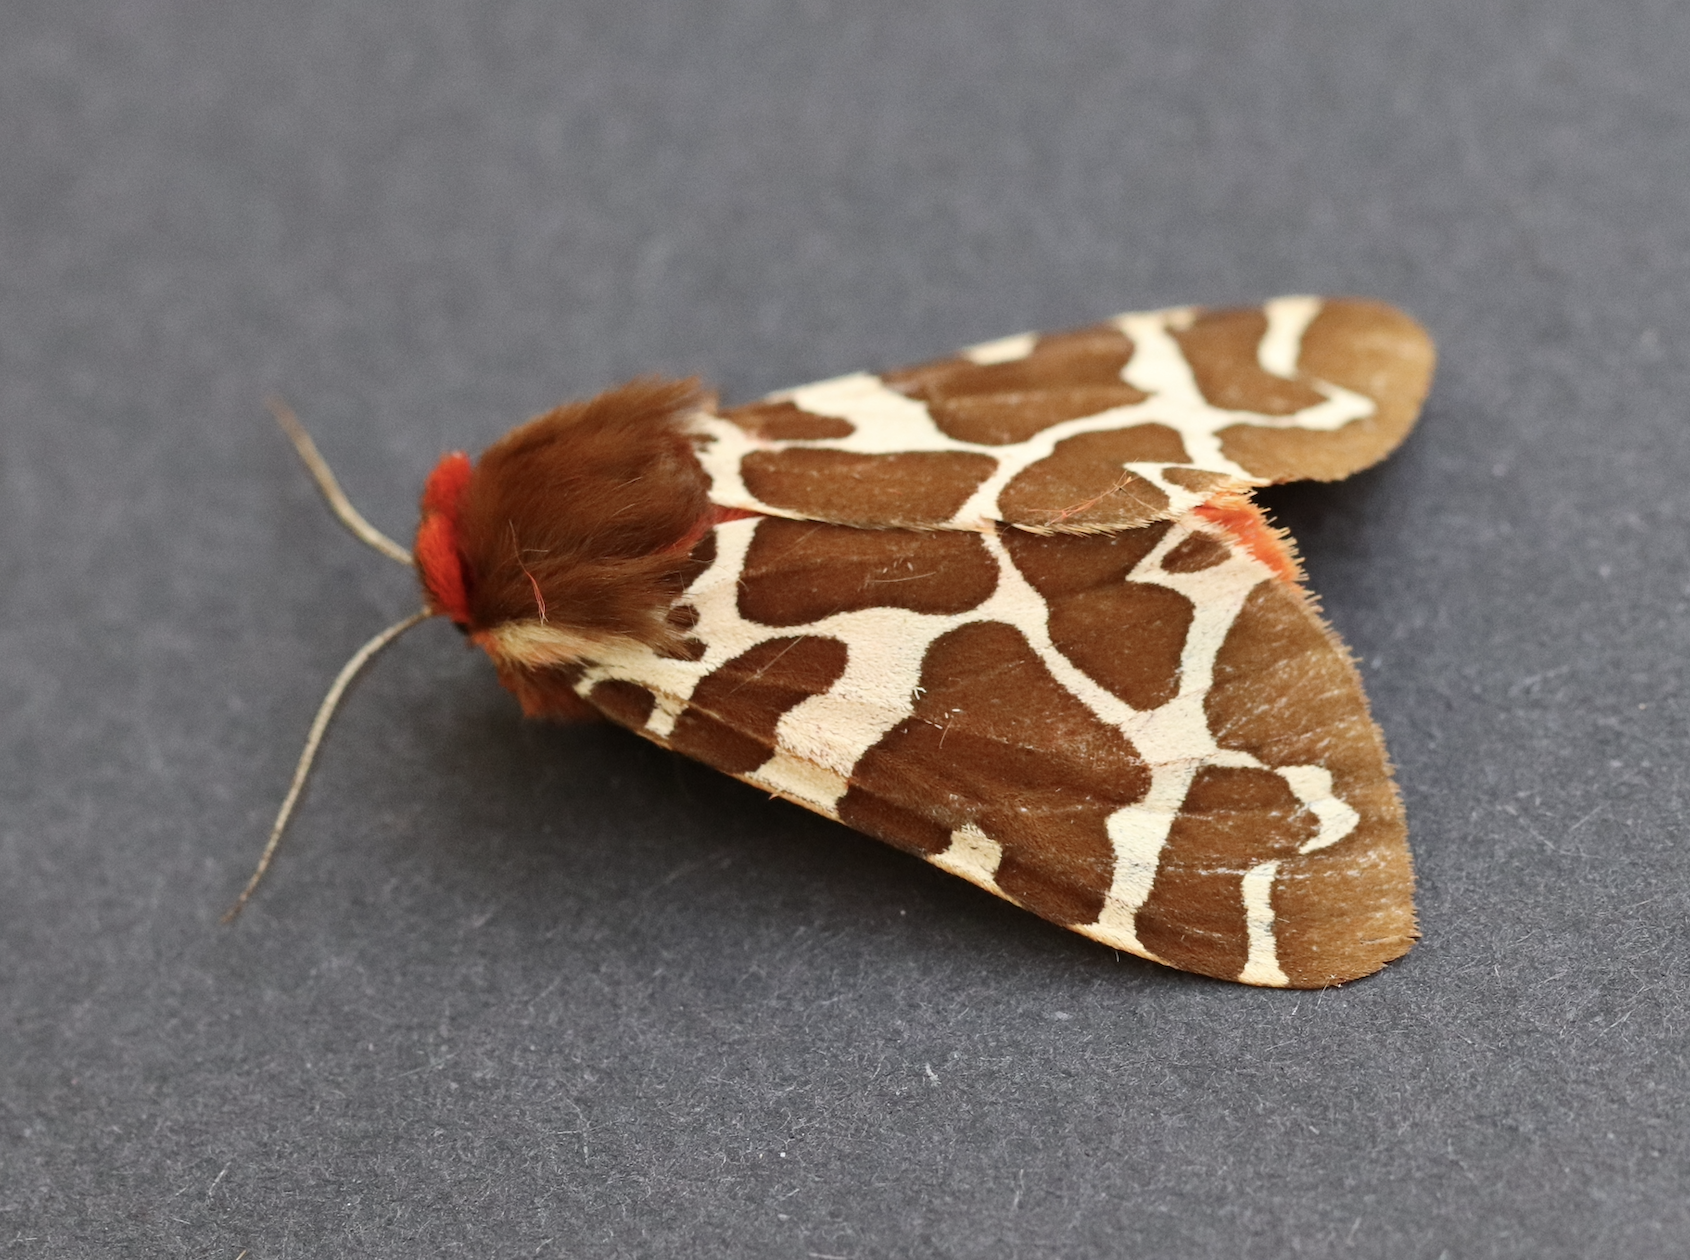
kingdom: Animalia
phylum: Arthropoda
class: Insecta
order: Lepidoptera
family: Erebidae
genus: Arctia
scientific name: Arctia opulenta
